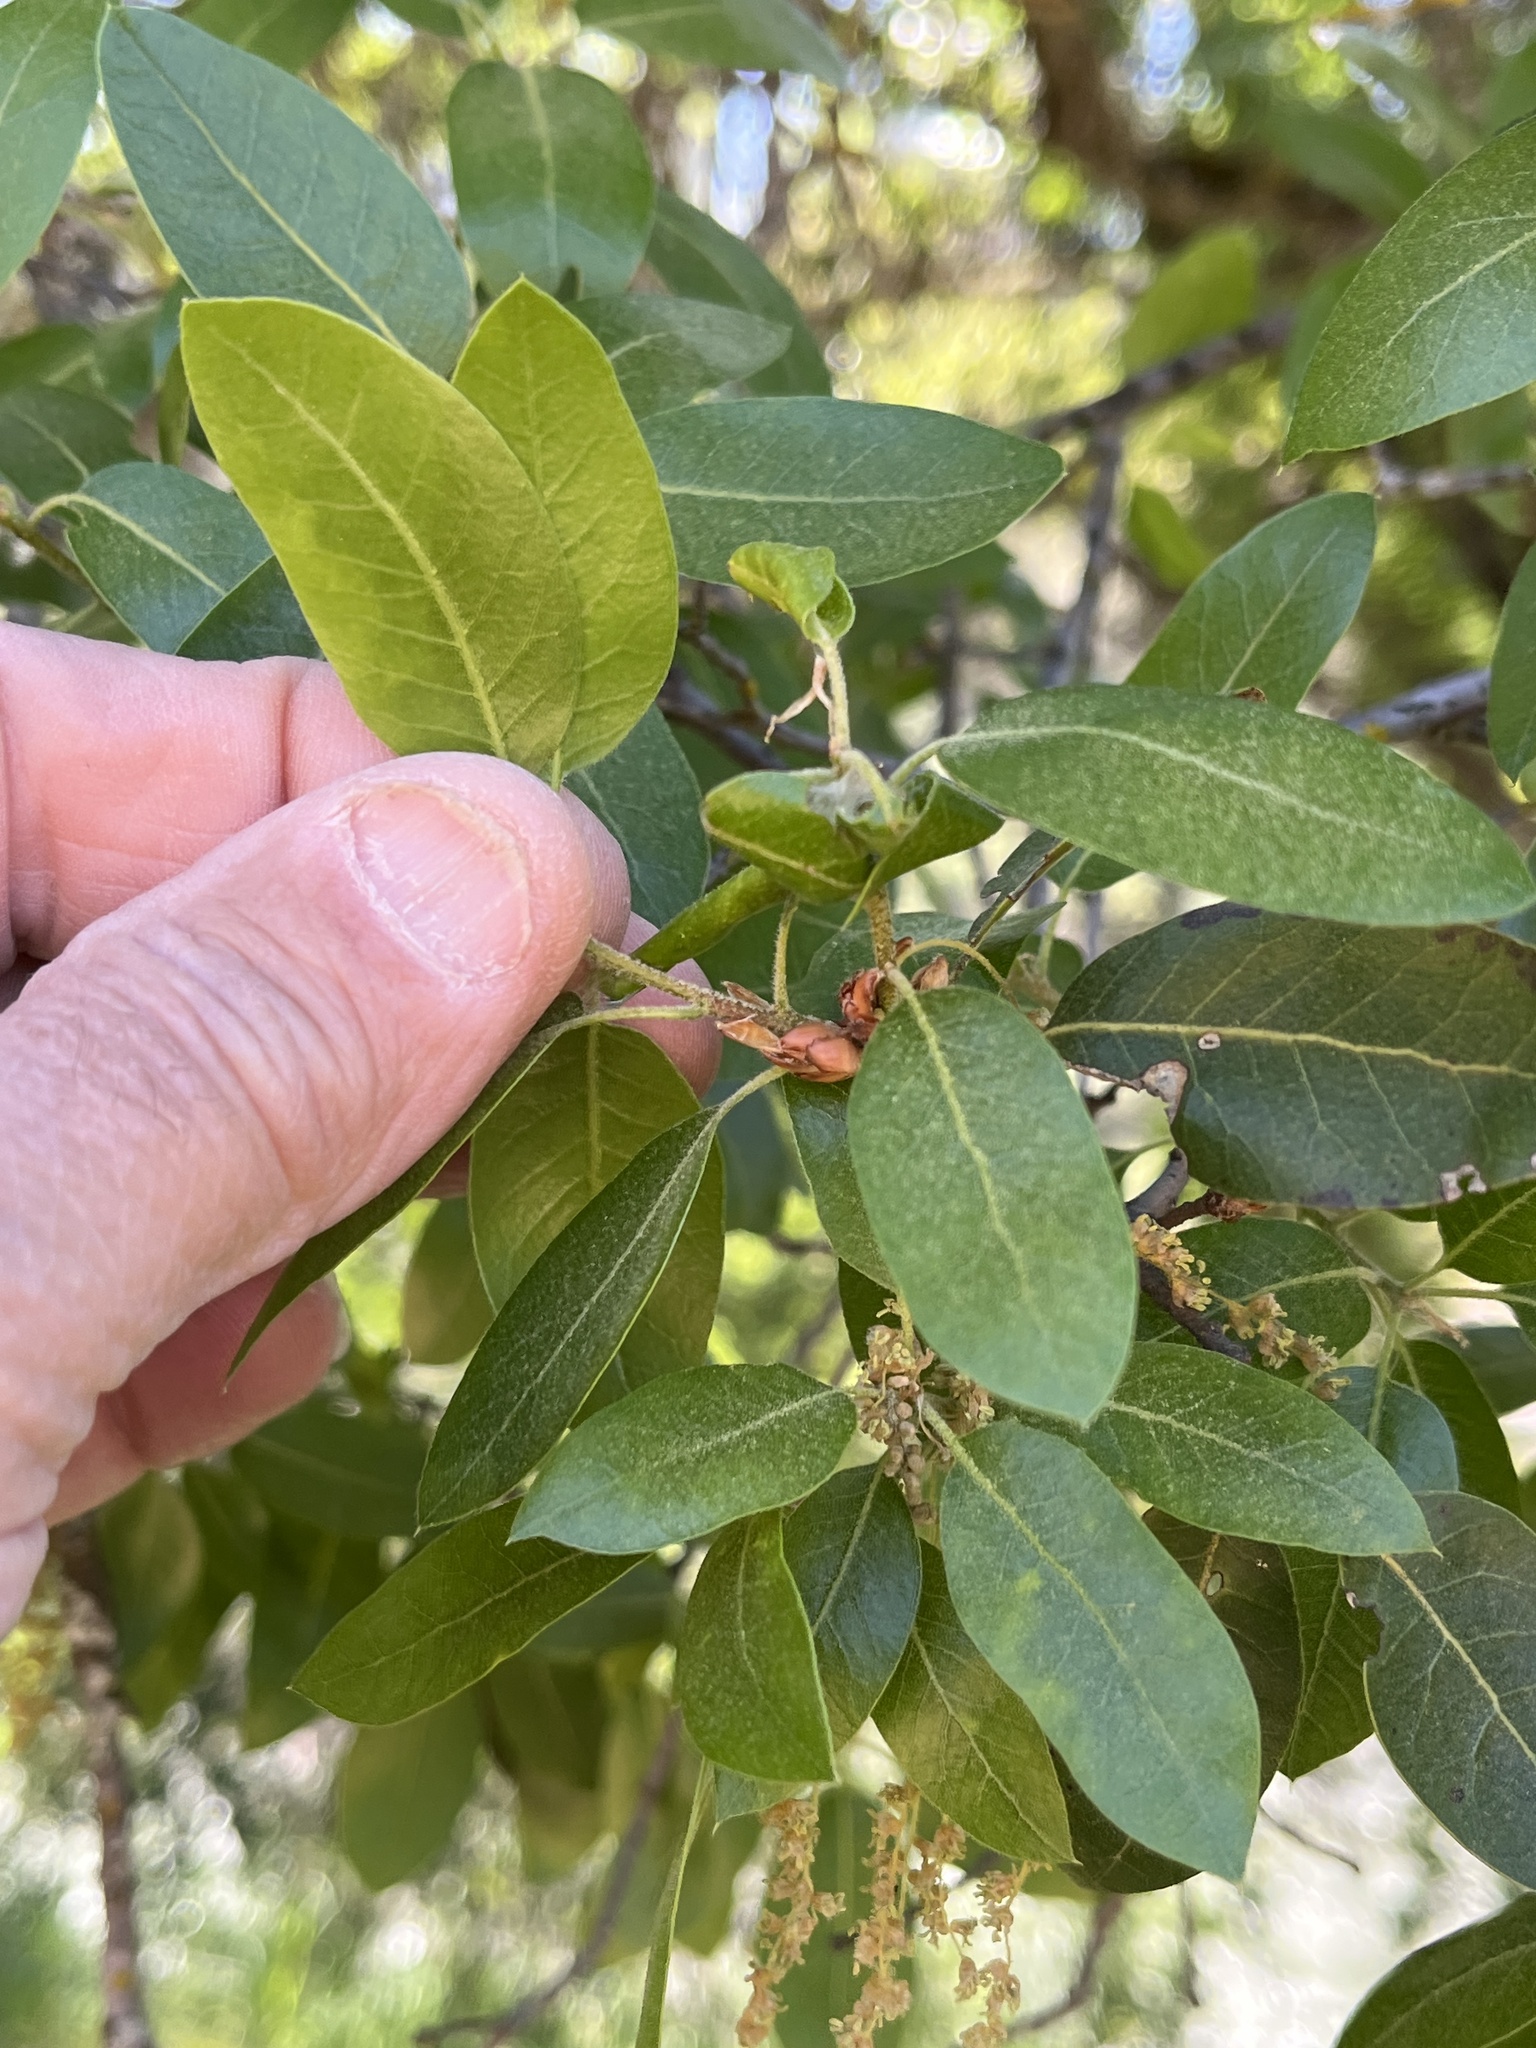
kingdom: Plantae
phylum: Tracheophyta
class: Magnoliopsida
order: Fagales
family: Fagaceae
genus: Quercus
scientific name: Quercus wislizeni
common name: Interior live oak
